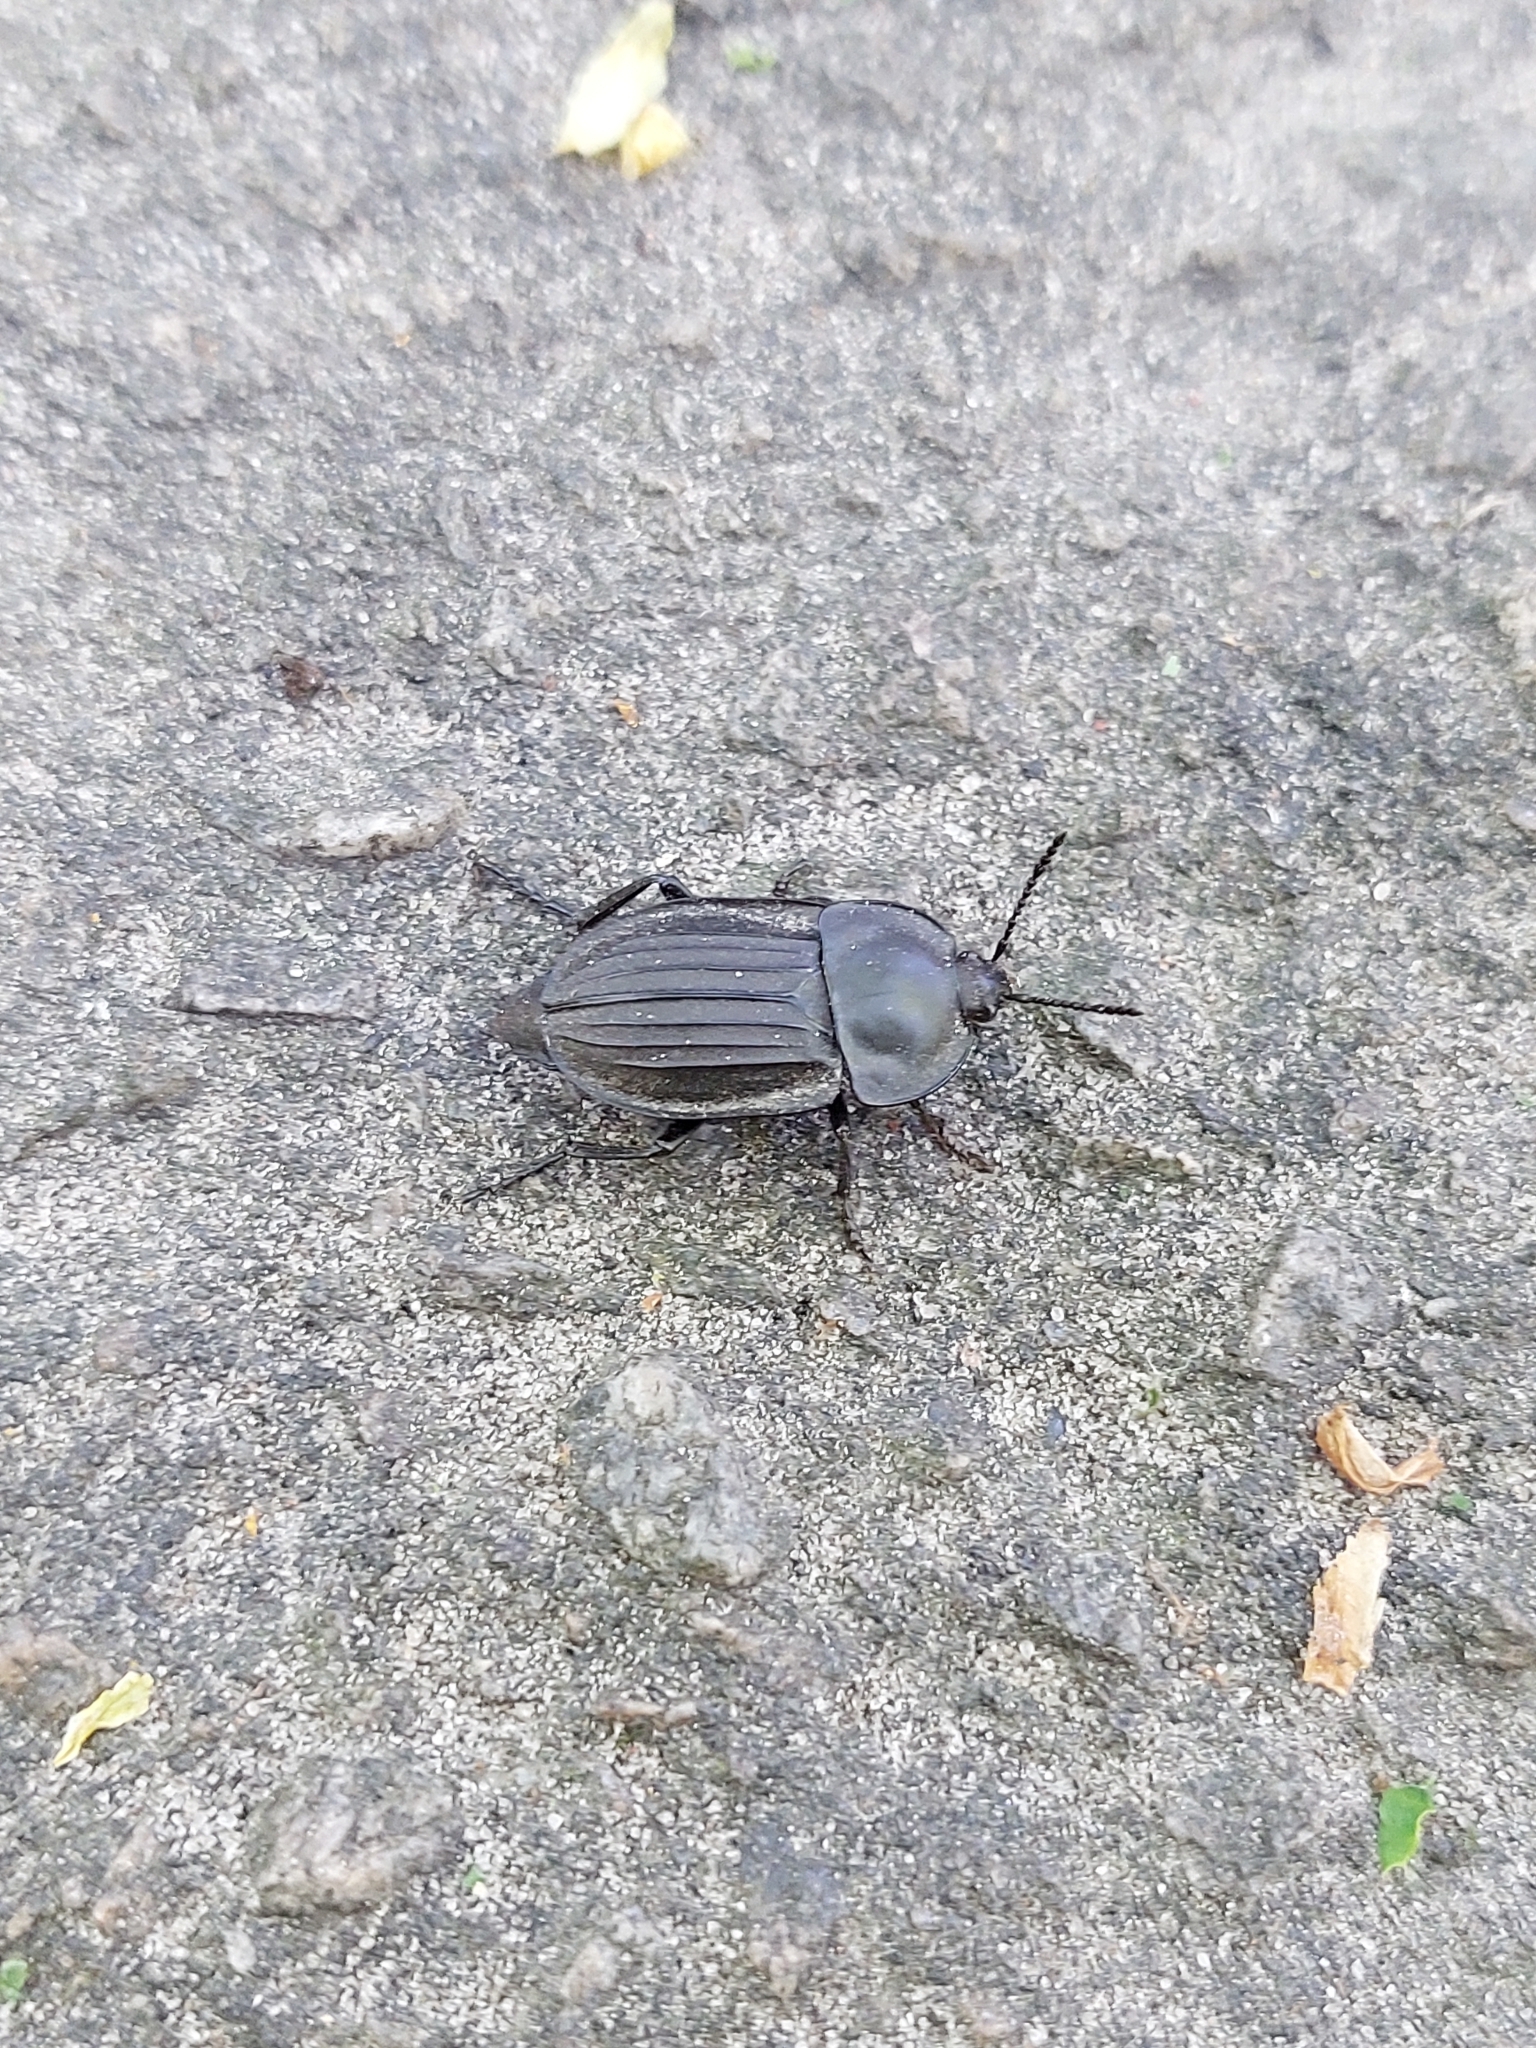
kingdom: Animalia
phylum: Arthropoda
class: Insecta
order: Coleoptera
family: Staphylinidae
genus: Silpha
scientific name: Silpha carinata
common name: Silphid beetle
